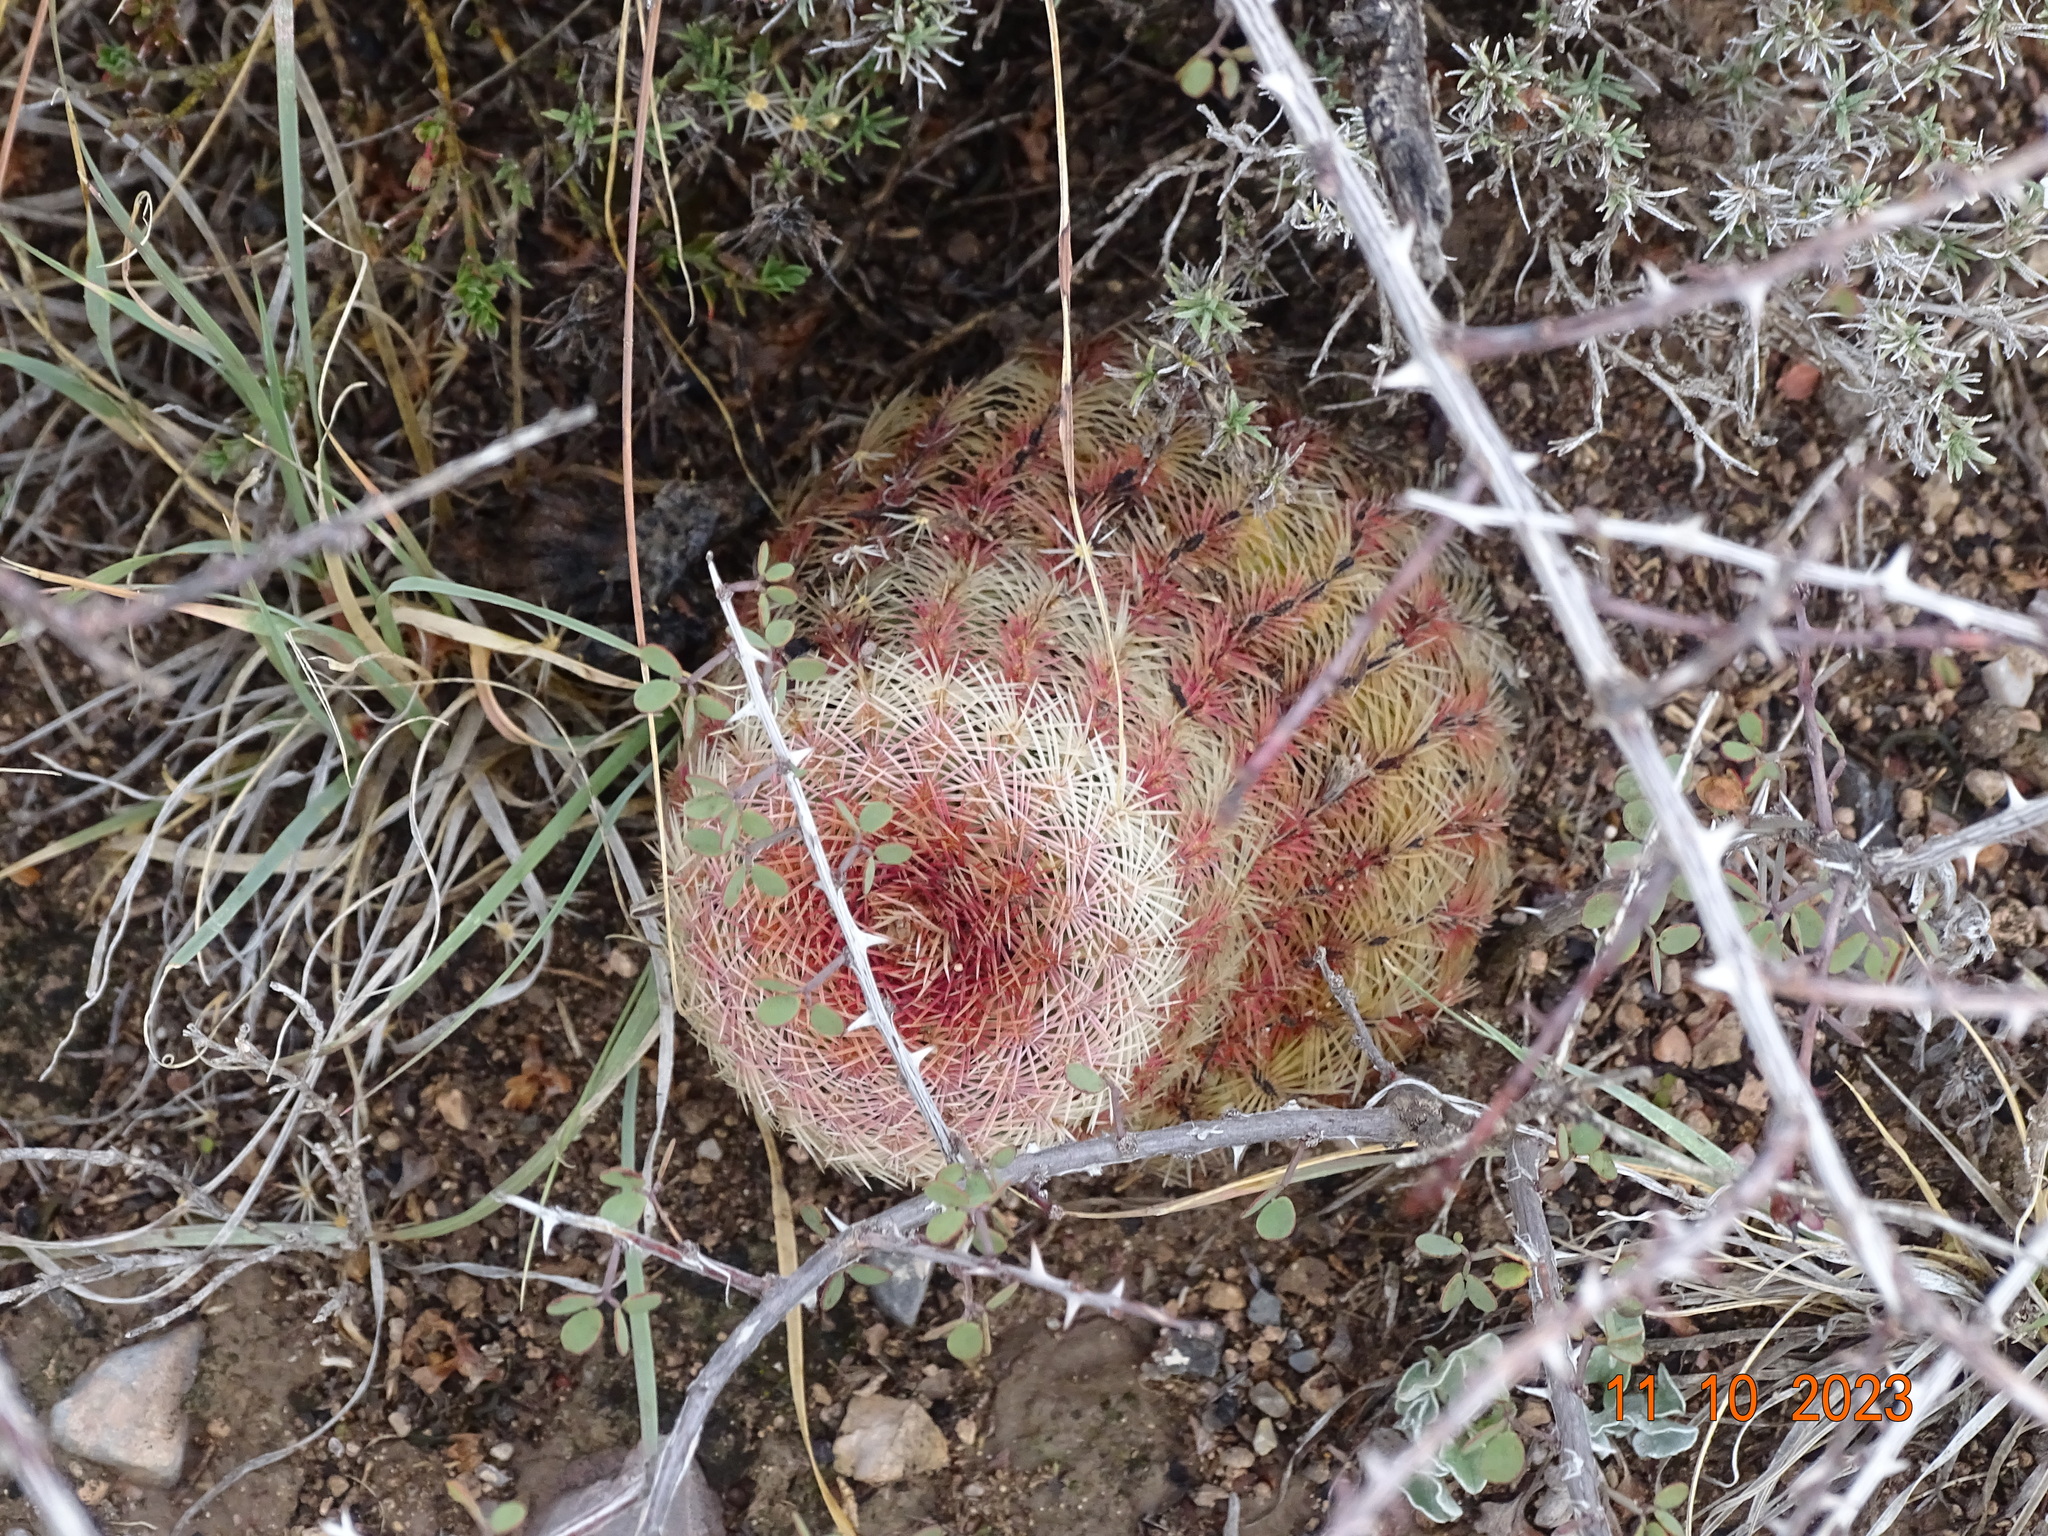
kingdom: Plantae
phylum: Tracheophyta
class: Magnoliopsida
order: Caryophyllales
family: Cactaceae
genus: Echinocereus
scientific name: Echinocereus pectinatus
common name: Rainbow cactus
